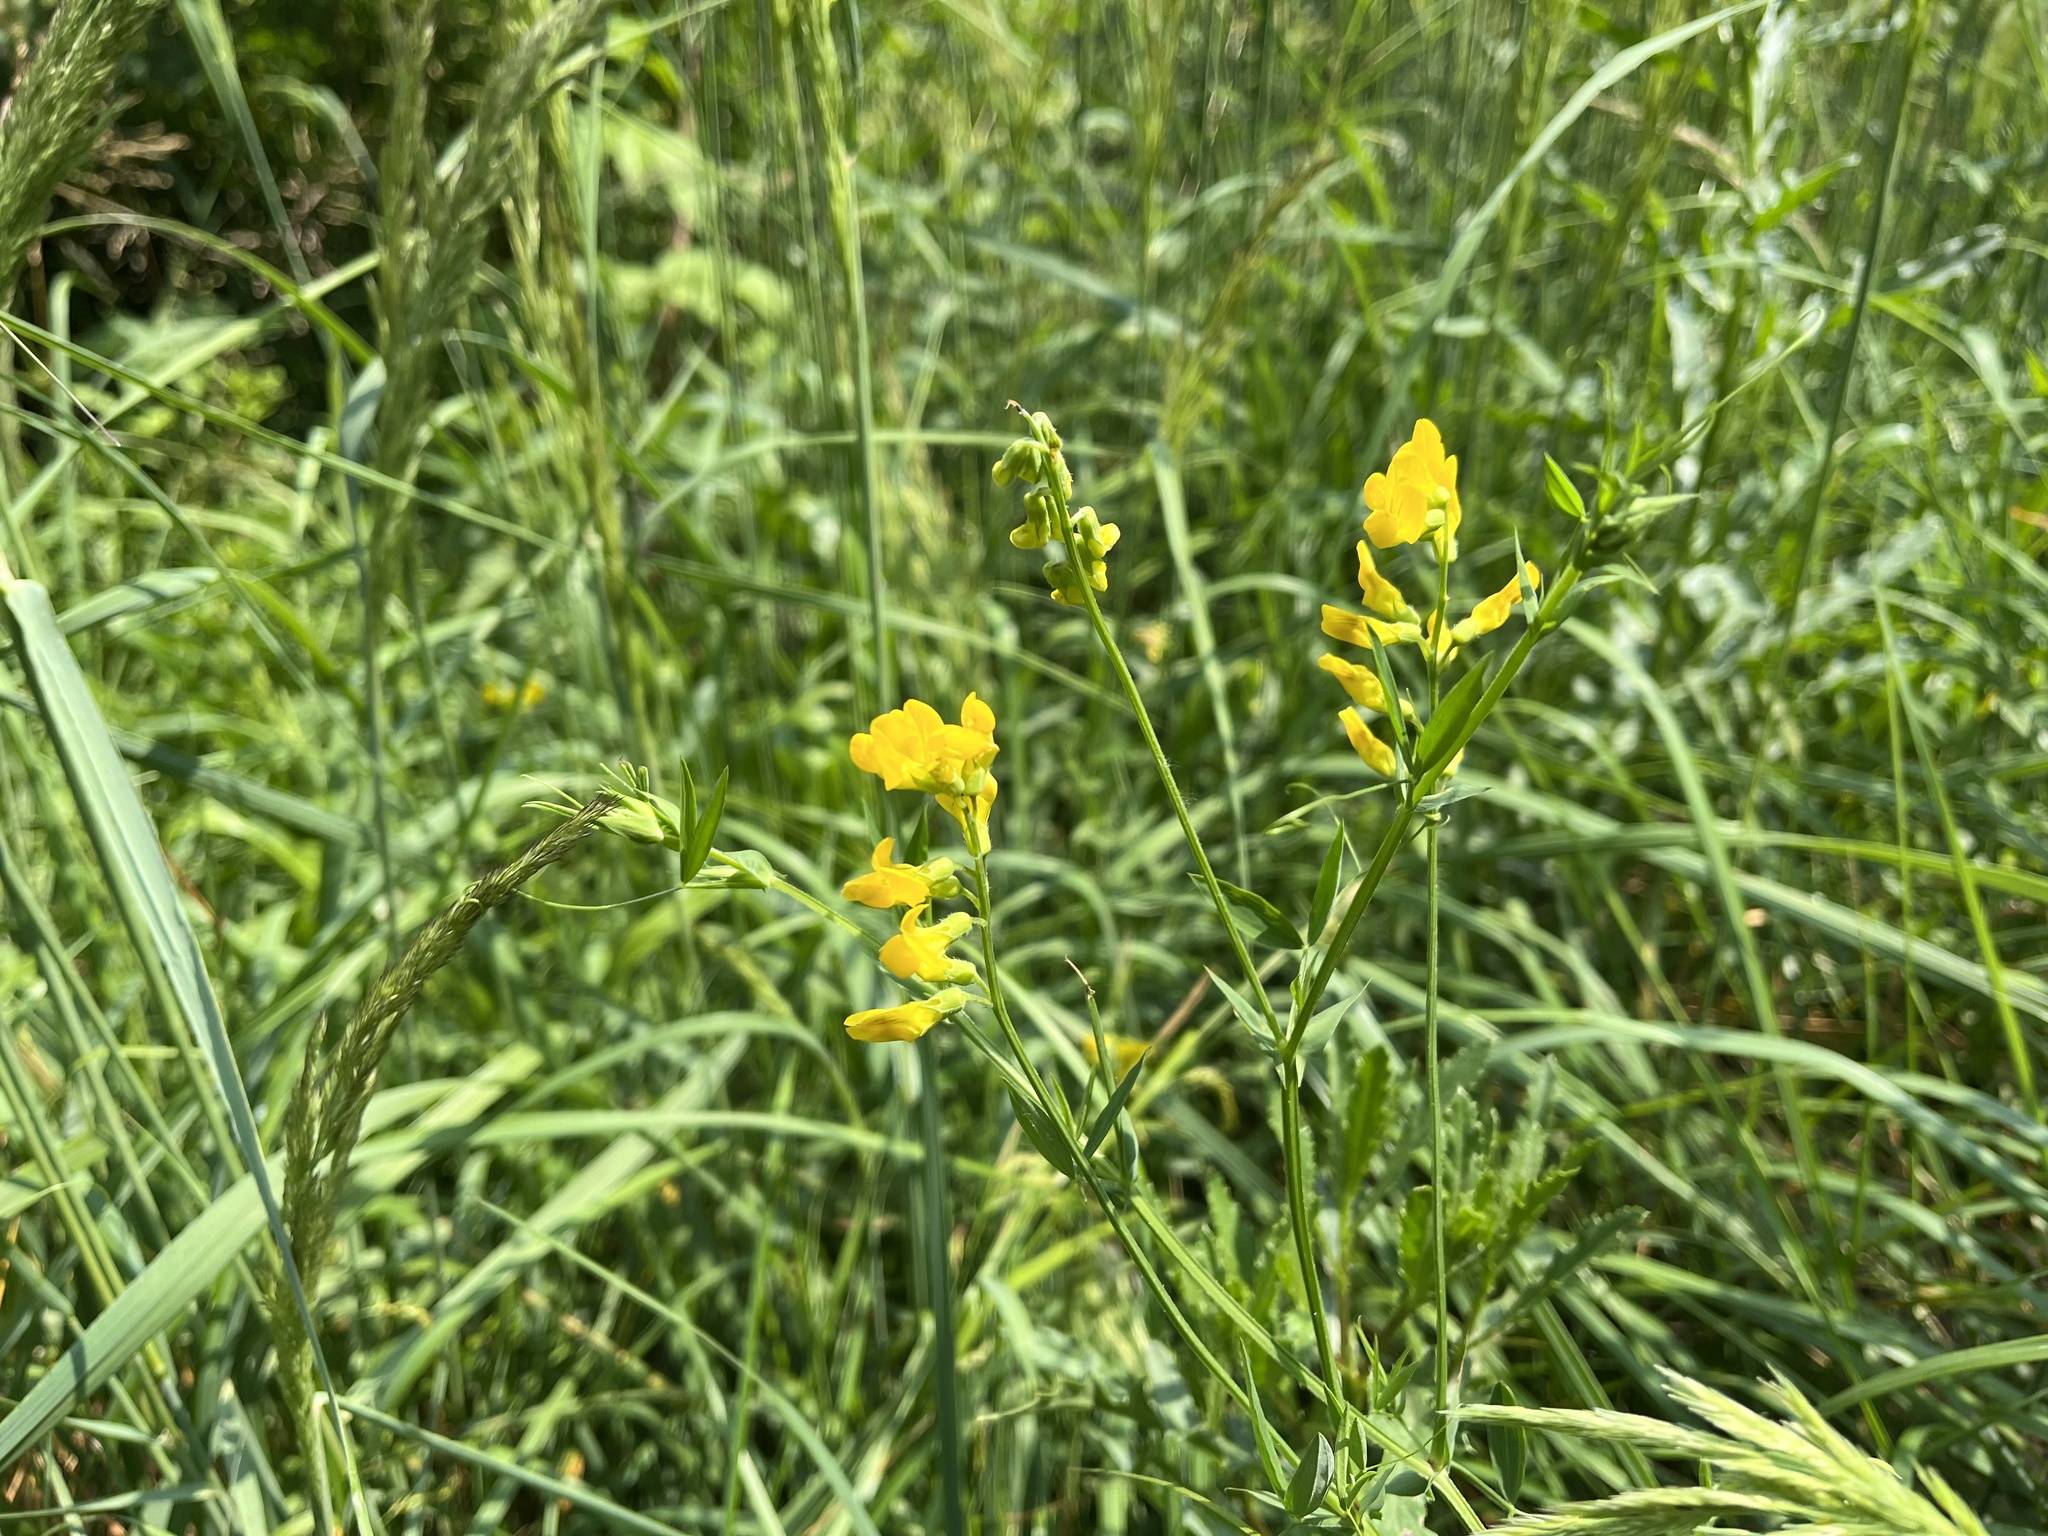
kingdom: Plantae
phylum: Tracheophyta
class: Magnoliopsida
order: Fabales
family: Fabaceae
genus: Lathyrus
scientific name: Lathyrus pratensis
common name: Meadow vetchling
